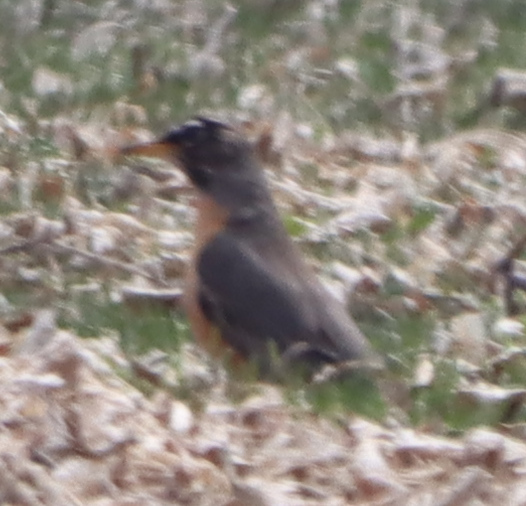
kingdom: Animalia
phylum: Chordata
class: Aves
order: Passeriformes
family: Turdidae
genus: Turdus
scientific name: Turdus migratorius
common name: American robin
